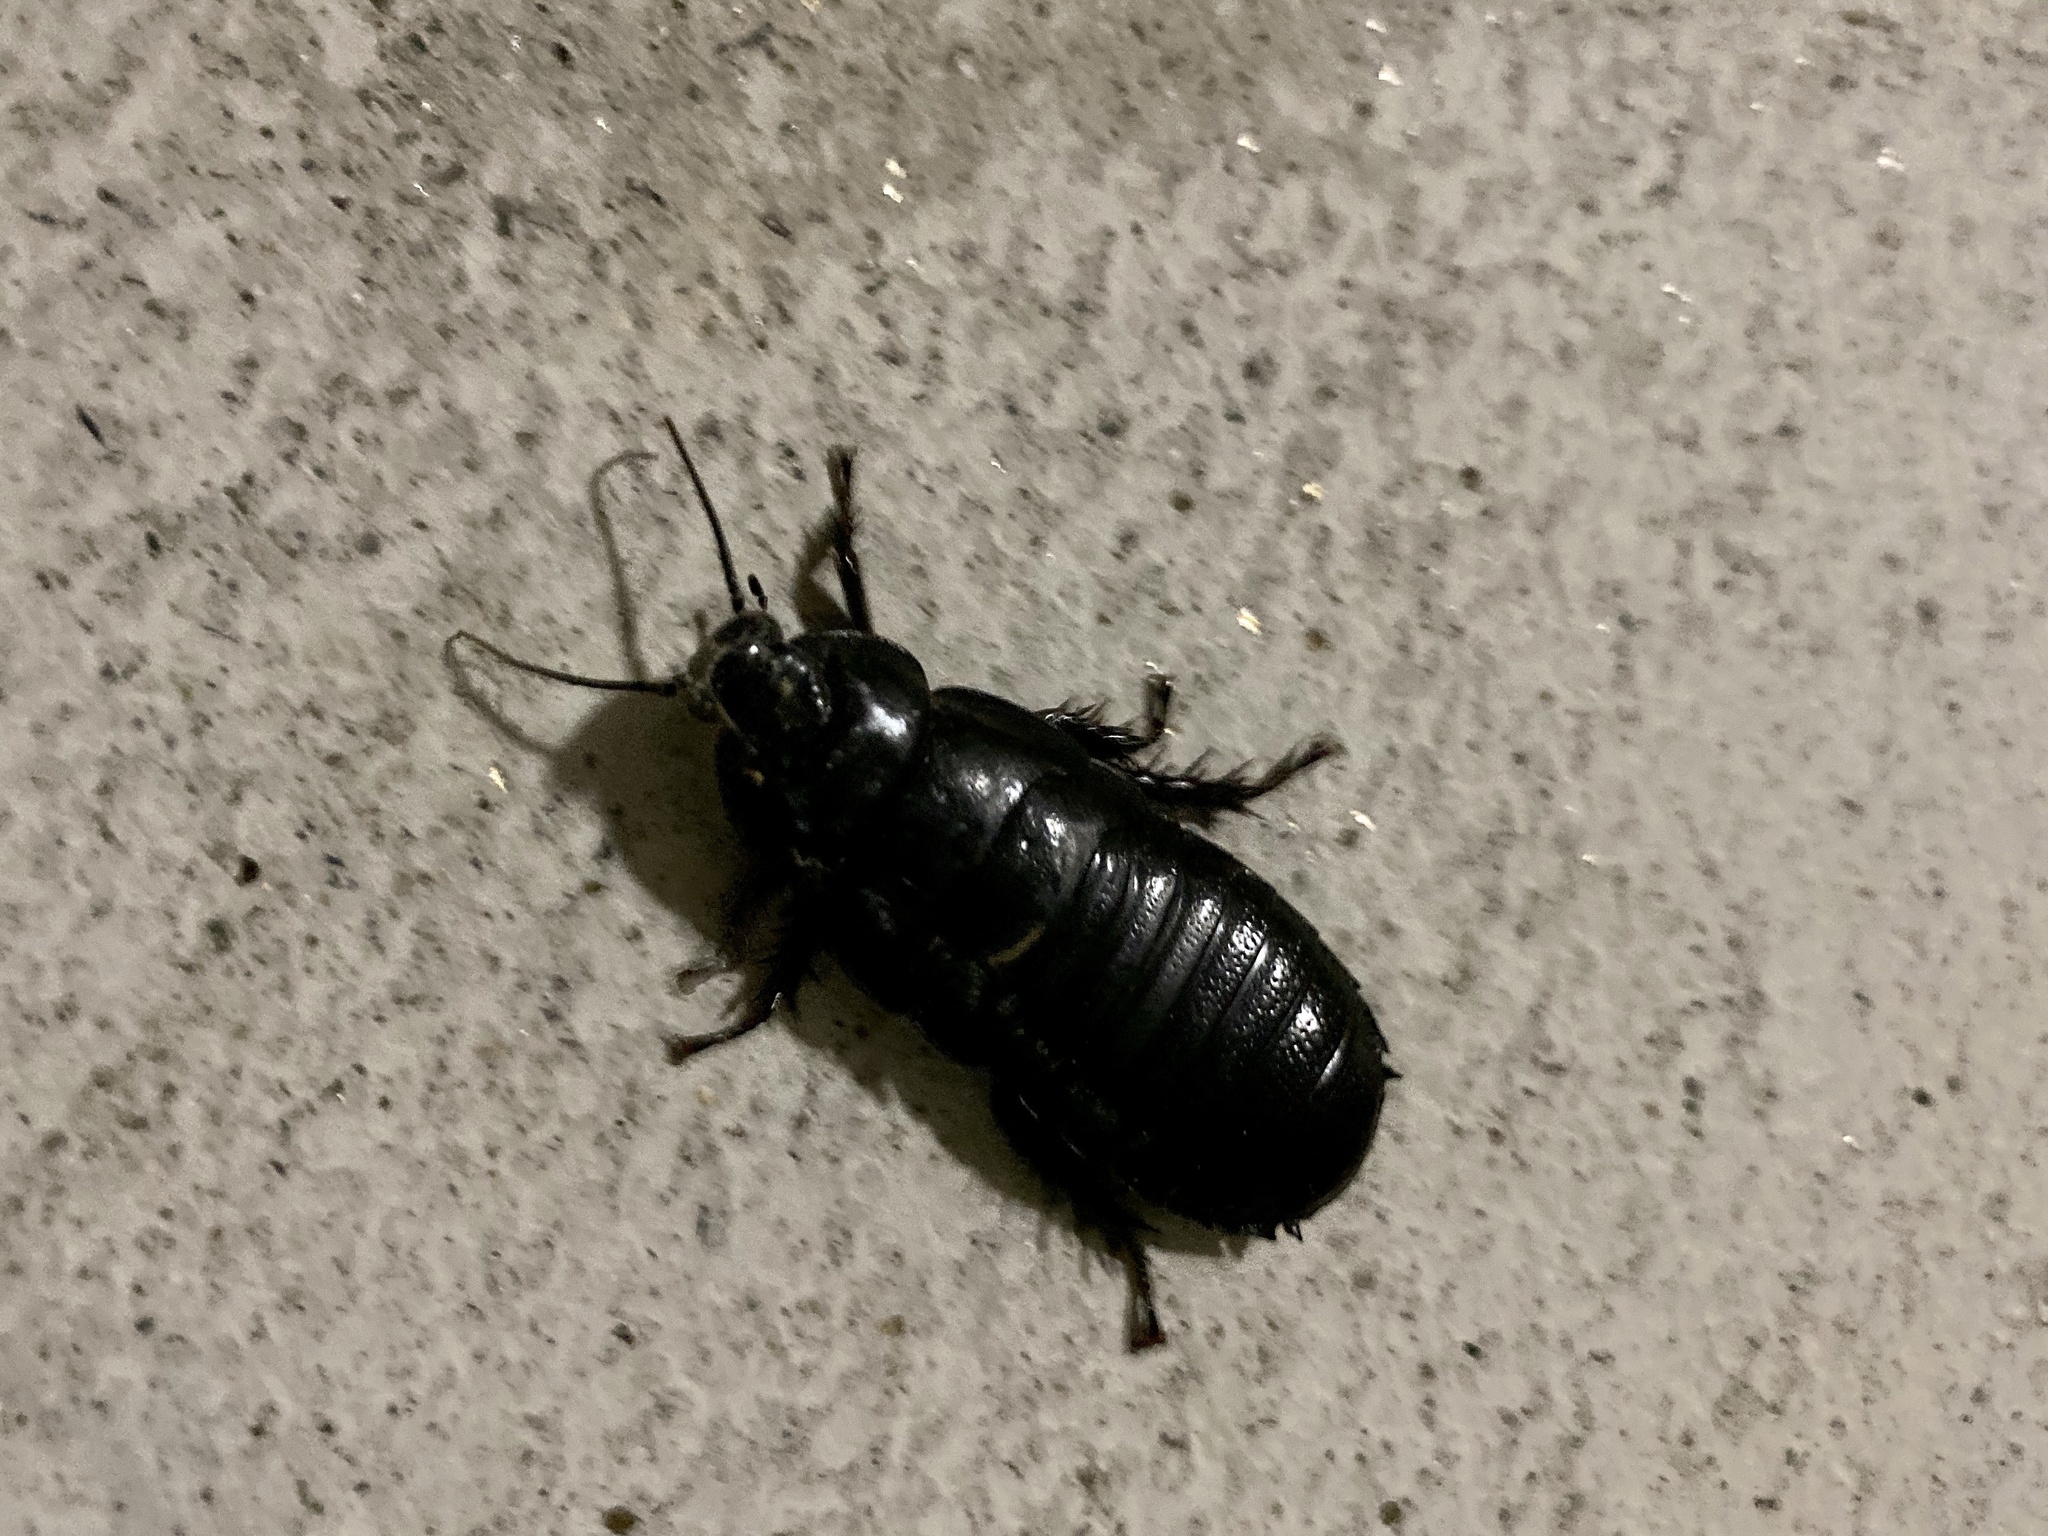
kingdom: Animalia
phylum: Arthropoda
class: Insecta
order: Blattodea
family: Blaberidae
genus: Panesthia
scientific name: Panesthia angustipennis
